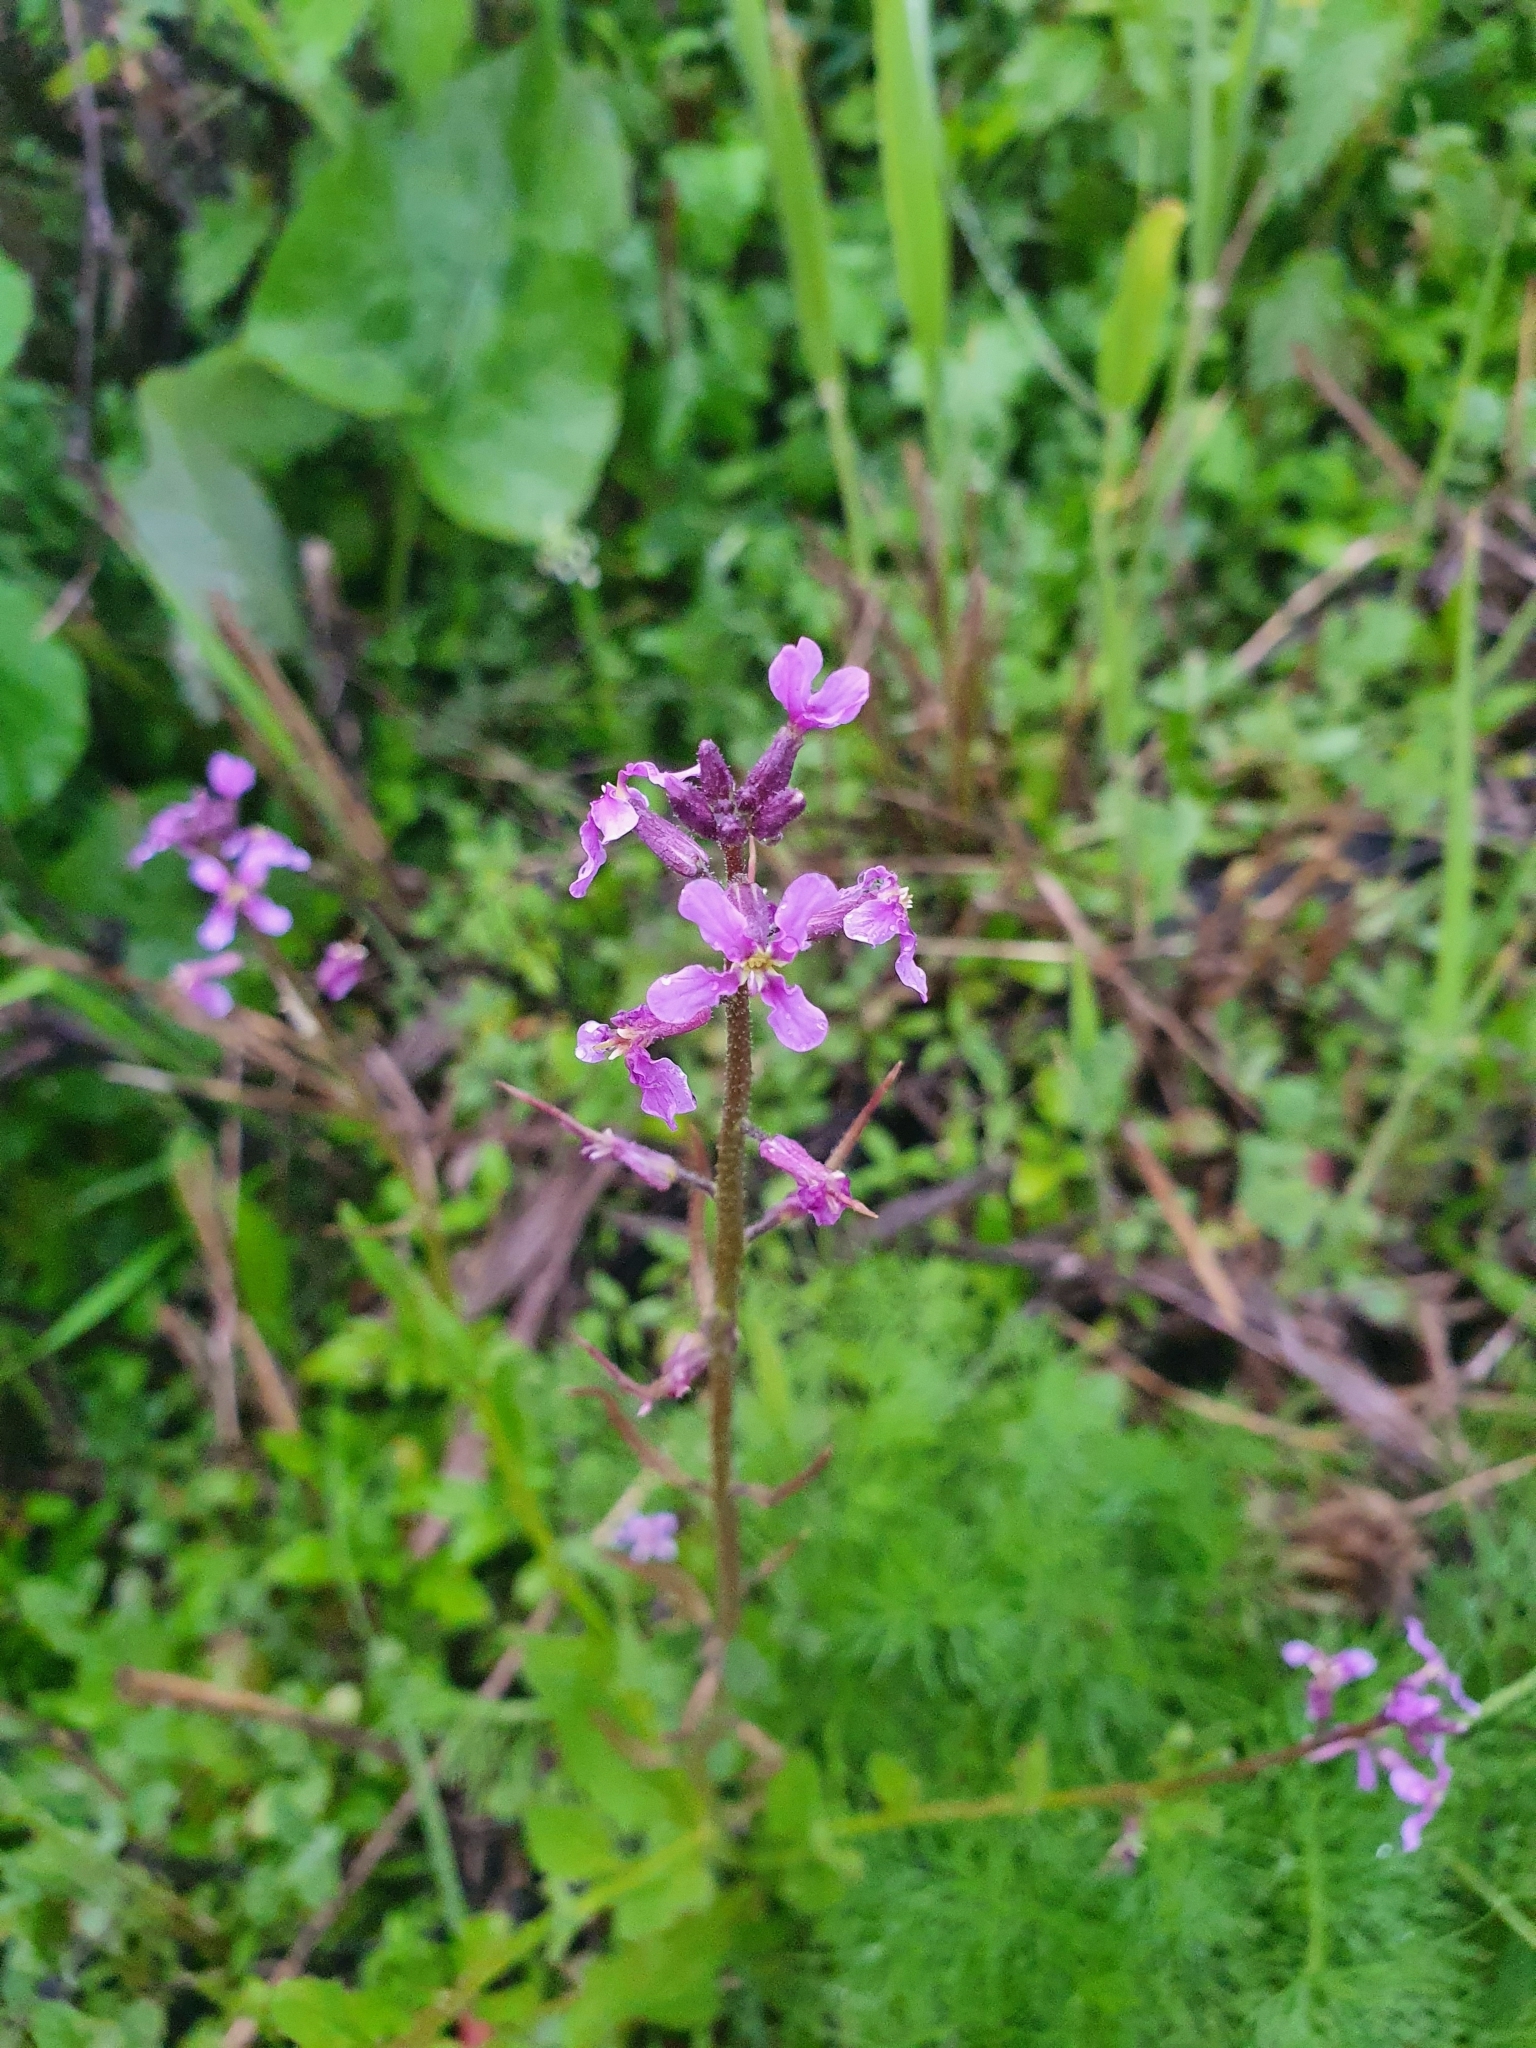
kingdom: Plantae
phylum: Tracheophyta
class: Magnoliopsida
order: Brassicales
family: Brassicaceae
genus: Chorispora
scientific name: Chorispora tenella
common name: Crossflower
